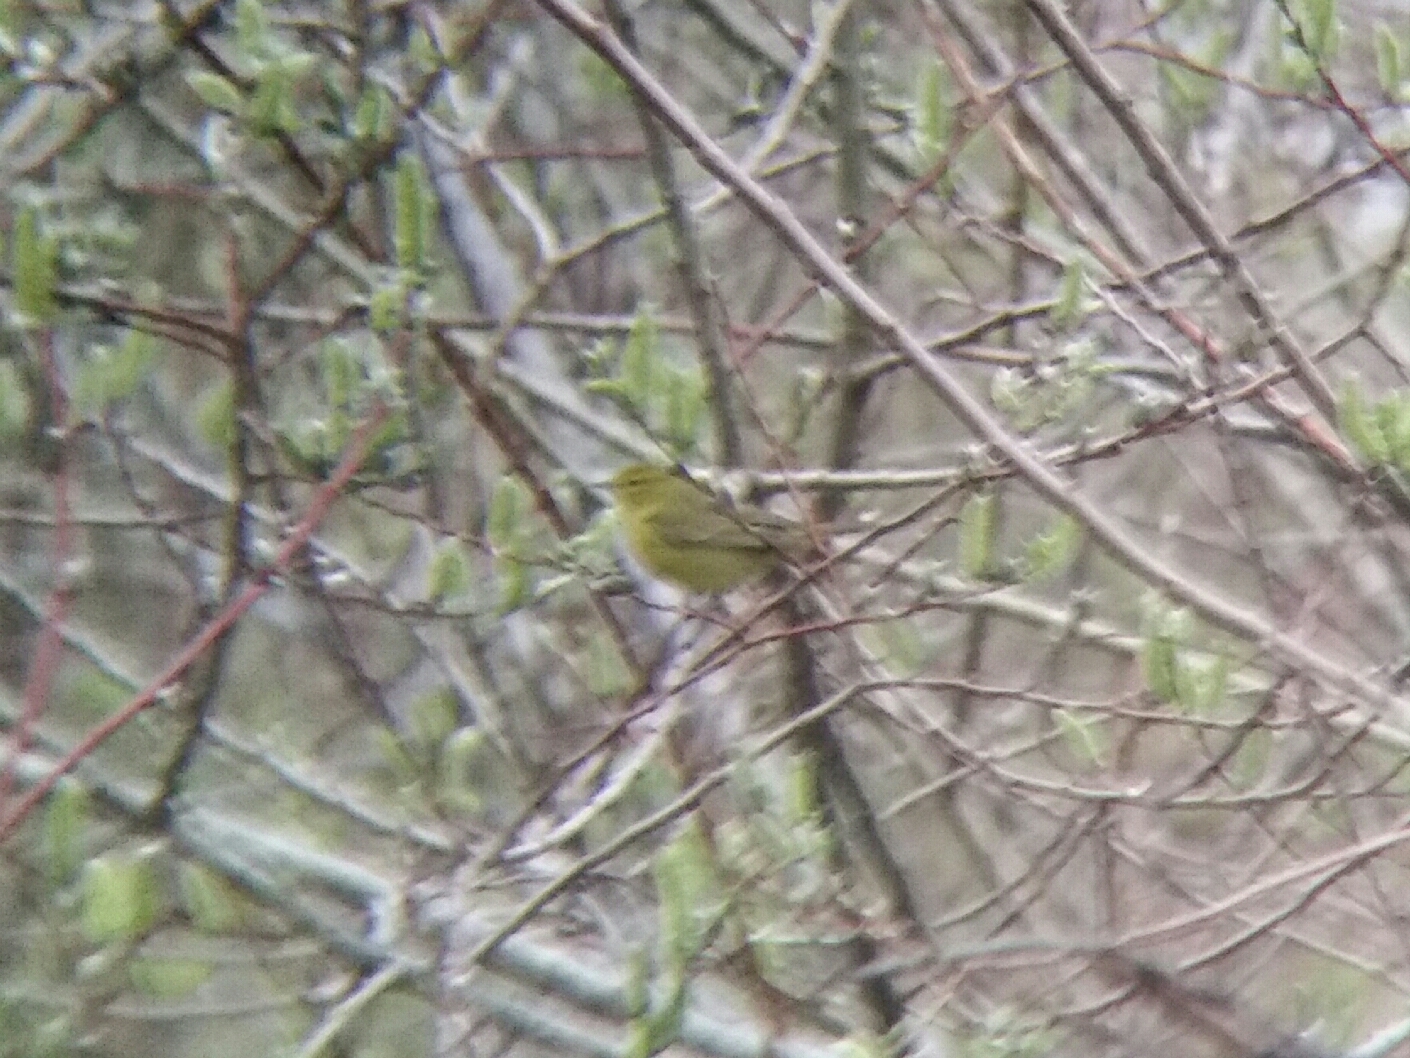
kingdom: Animalia
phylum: Chordata
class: Aves
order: Passeriformes
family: Parulidae
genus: Leiothlypis
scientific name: Leiothlypis celata
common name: Orange-crowned warbler
